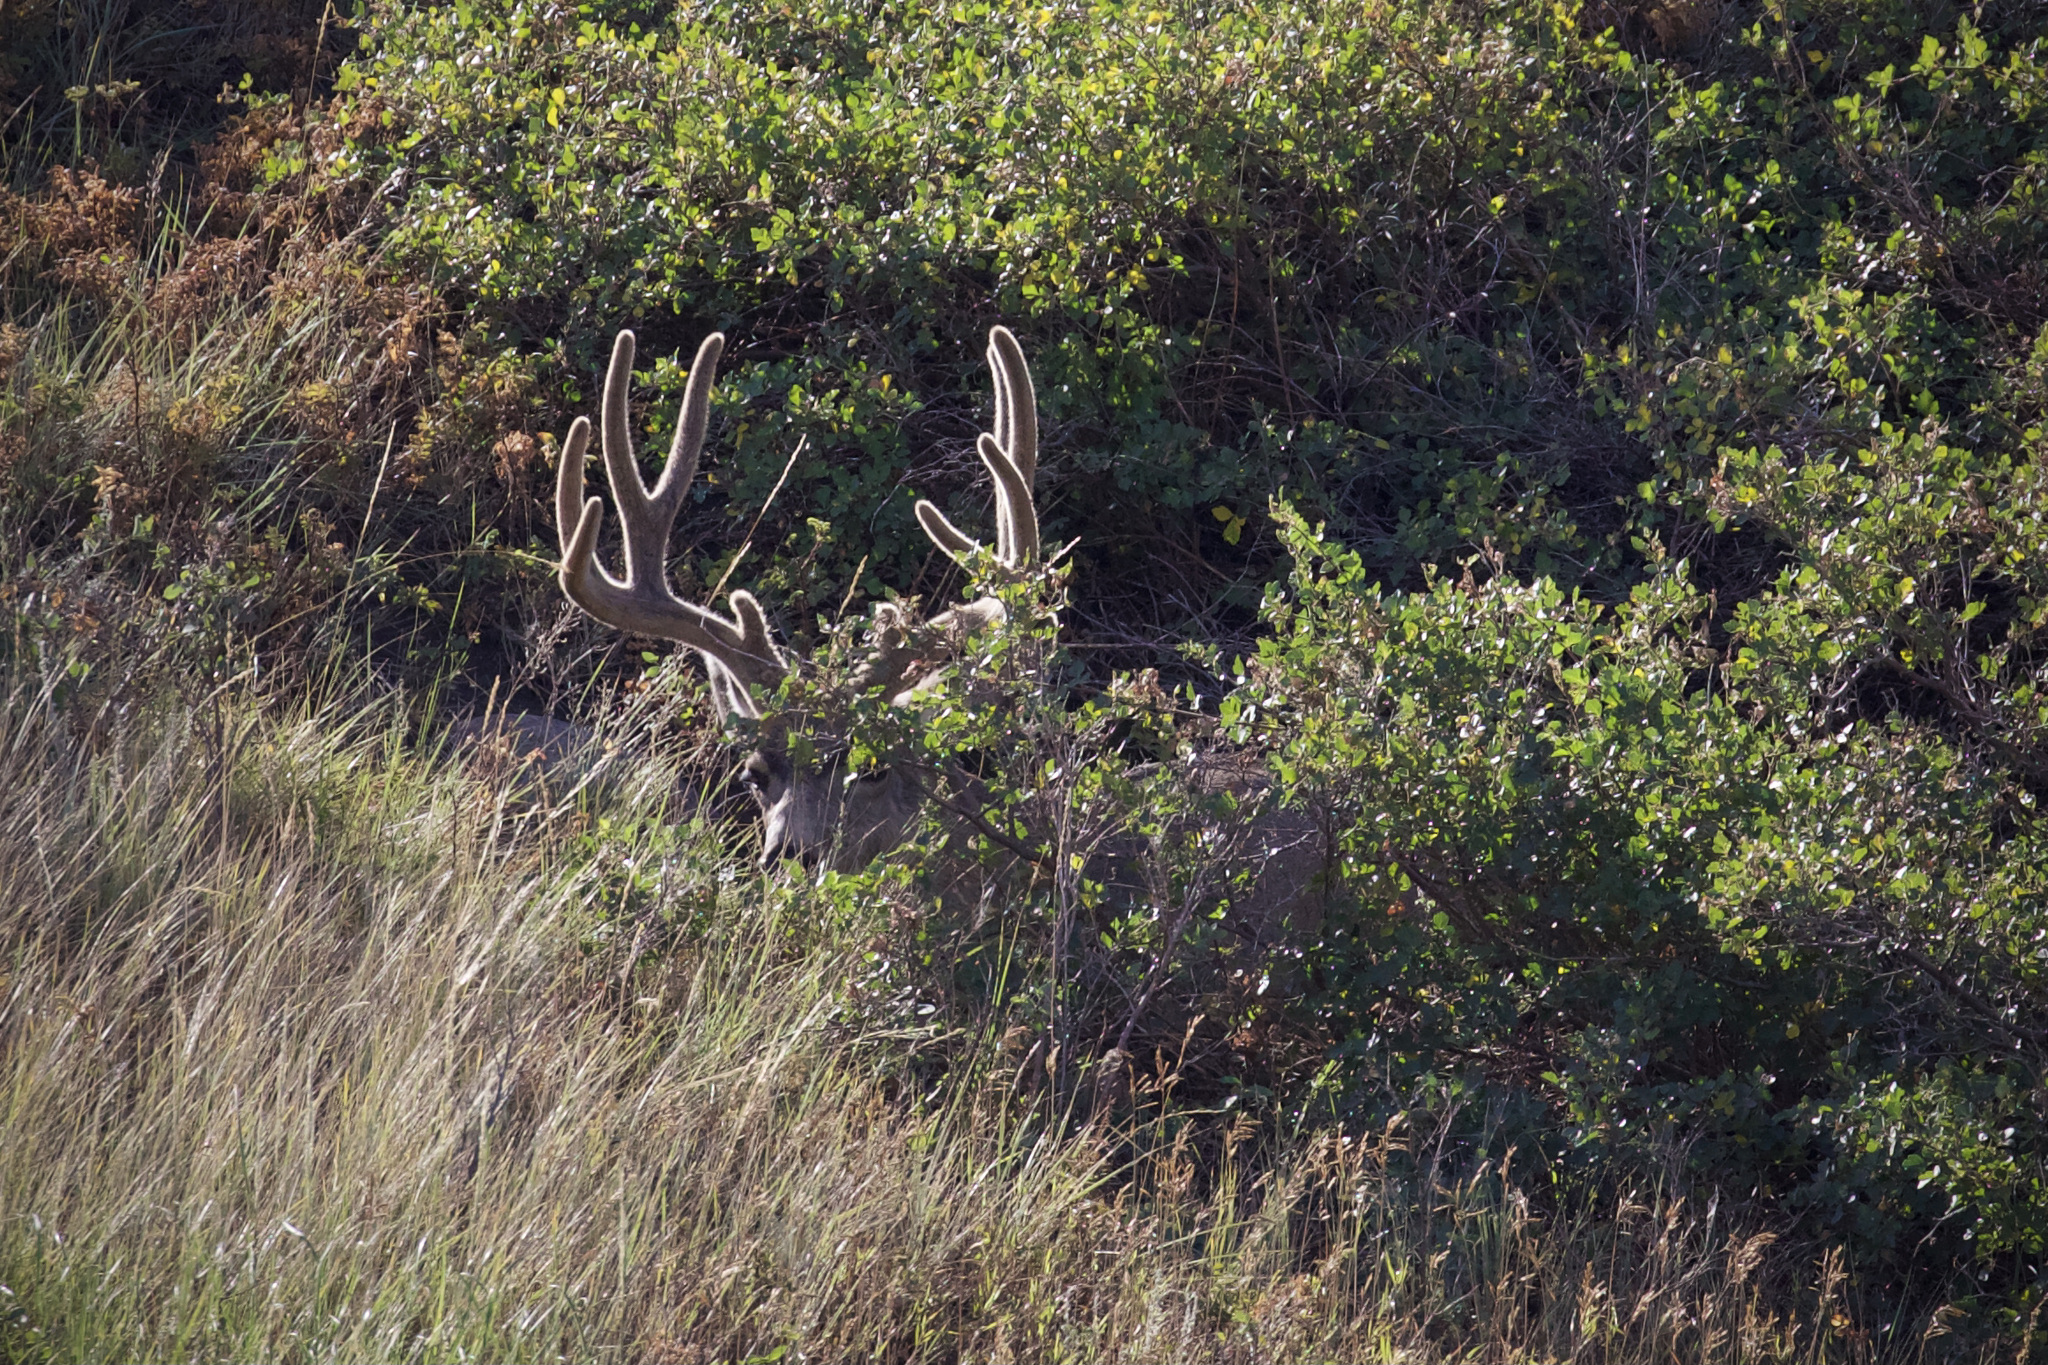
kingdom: Animalia
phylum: Chordata
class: Mammalia
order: Artiodactyla
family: Cervidae
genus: Odocoileus
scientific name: Odocoileus hemionus
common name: Mule deer
